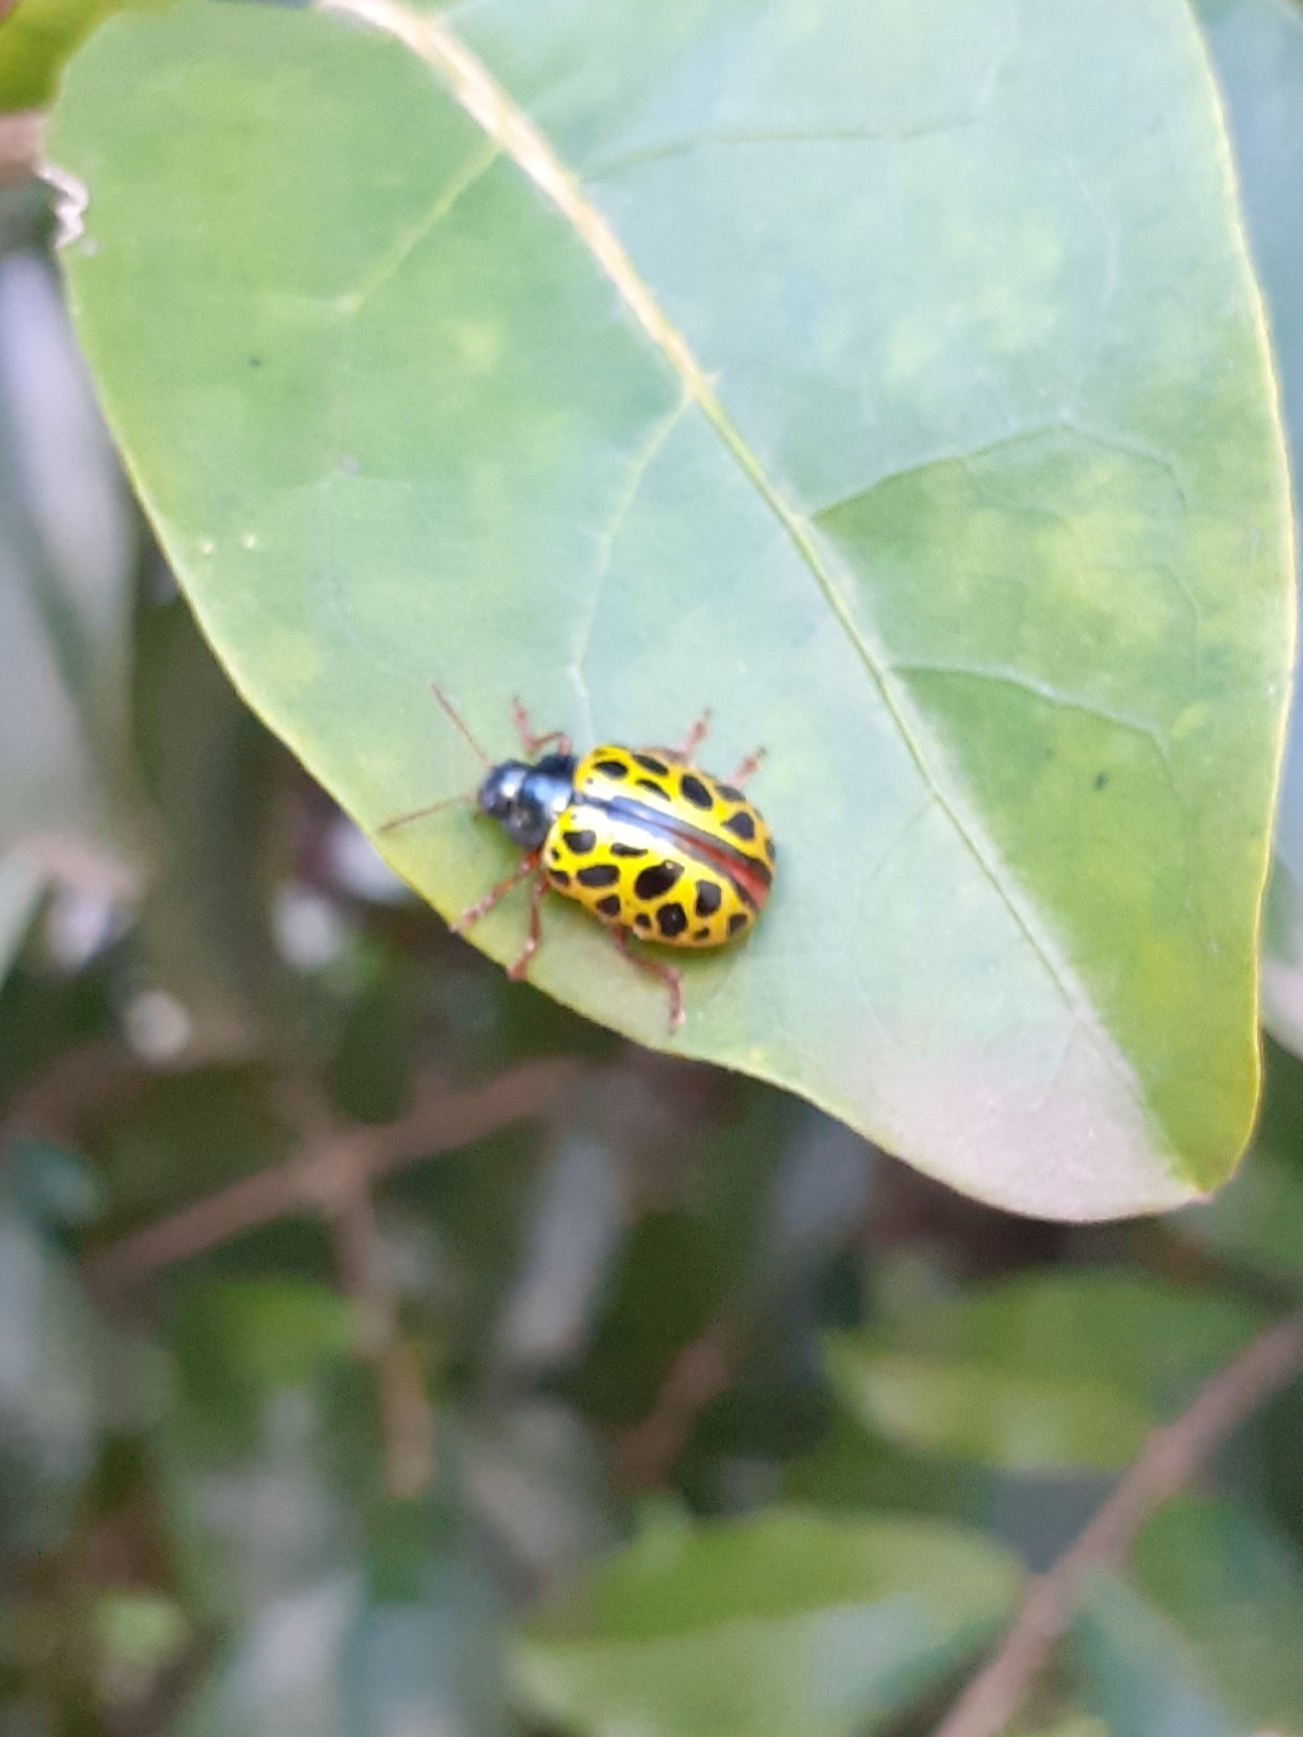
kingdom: Animalia
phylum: Arthropoda
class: Insecta
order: Coleoptera
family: Chrysomelidae
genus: Calligrapha
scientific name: Calligrapha polyspila
